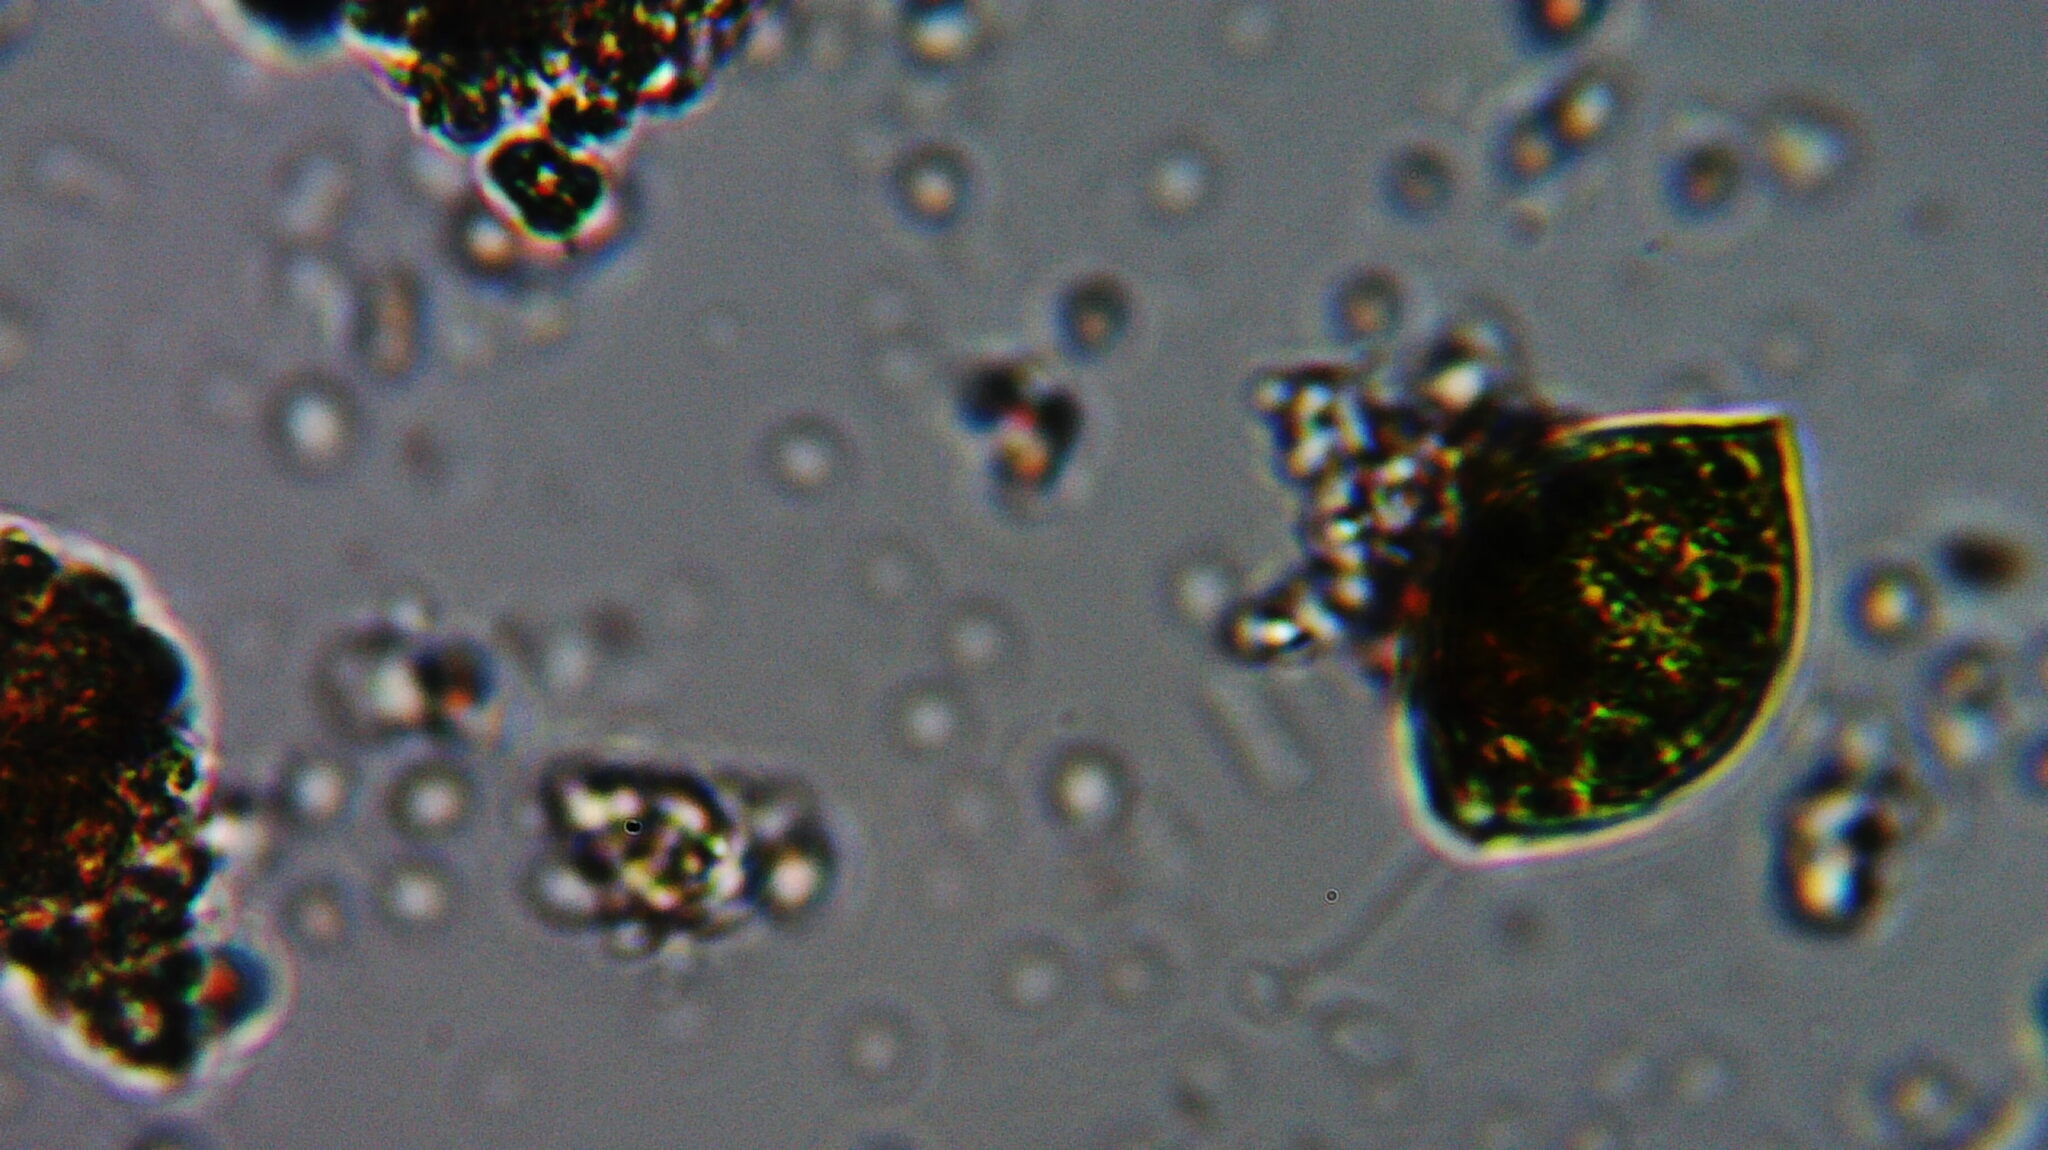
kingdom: Protozoa
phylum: Euglenozoa
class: Euglenoidea
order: Euglenida
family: Phacidae
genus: Lepocinclis
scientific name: Lepocinclis fusiformis
